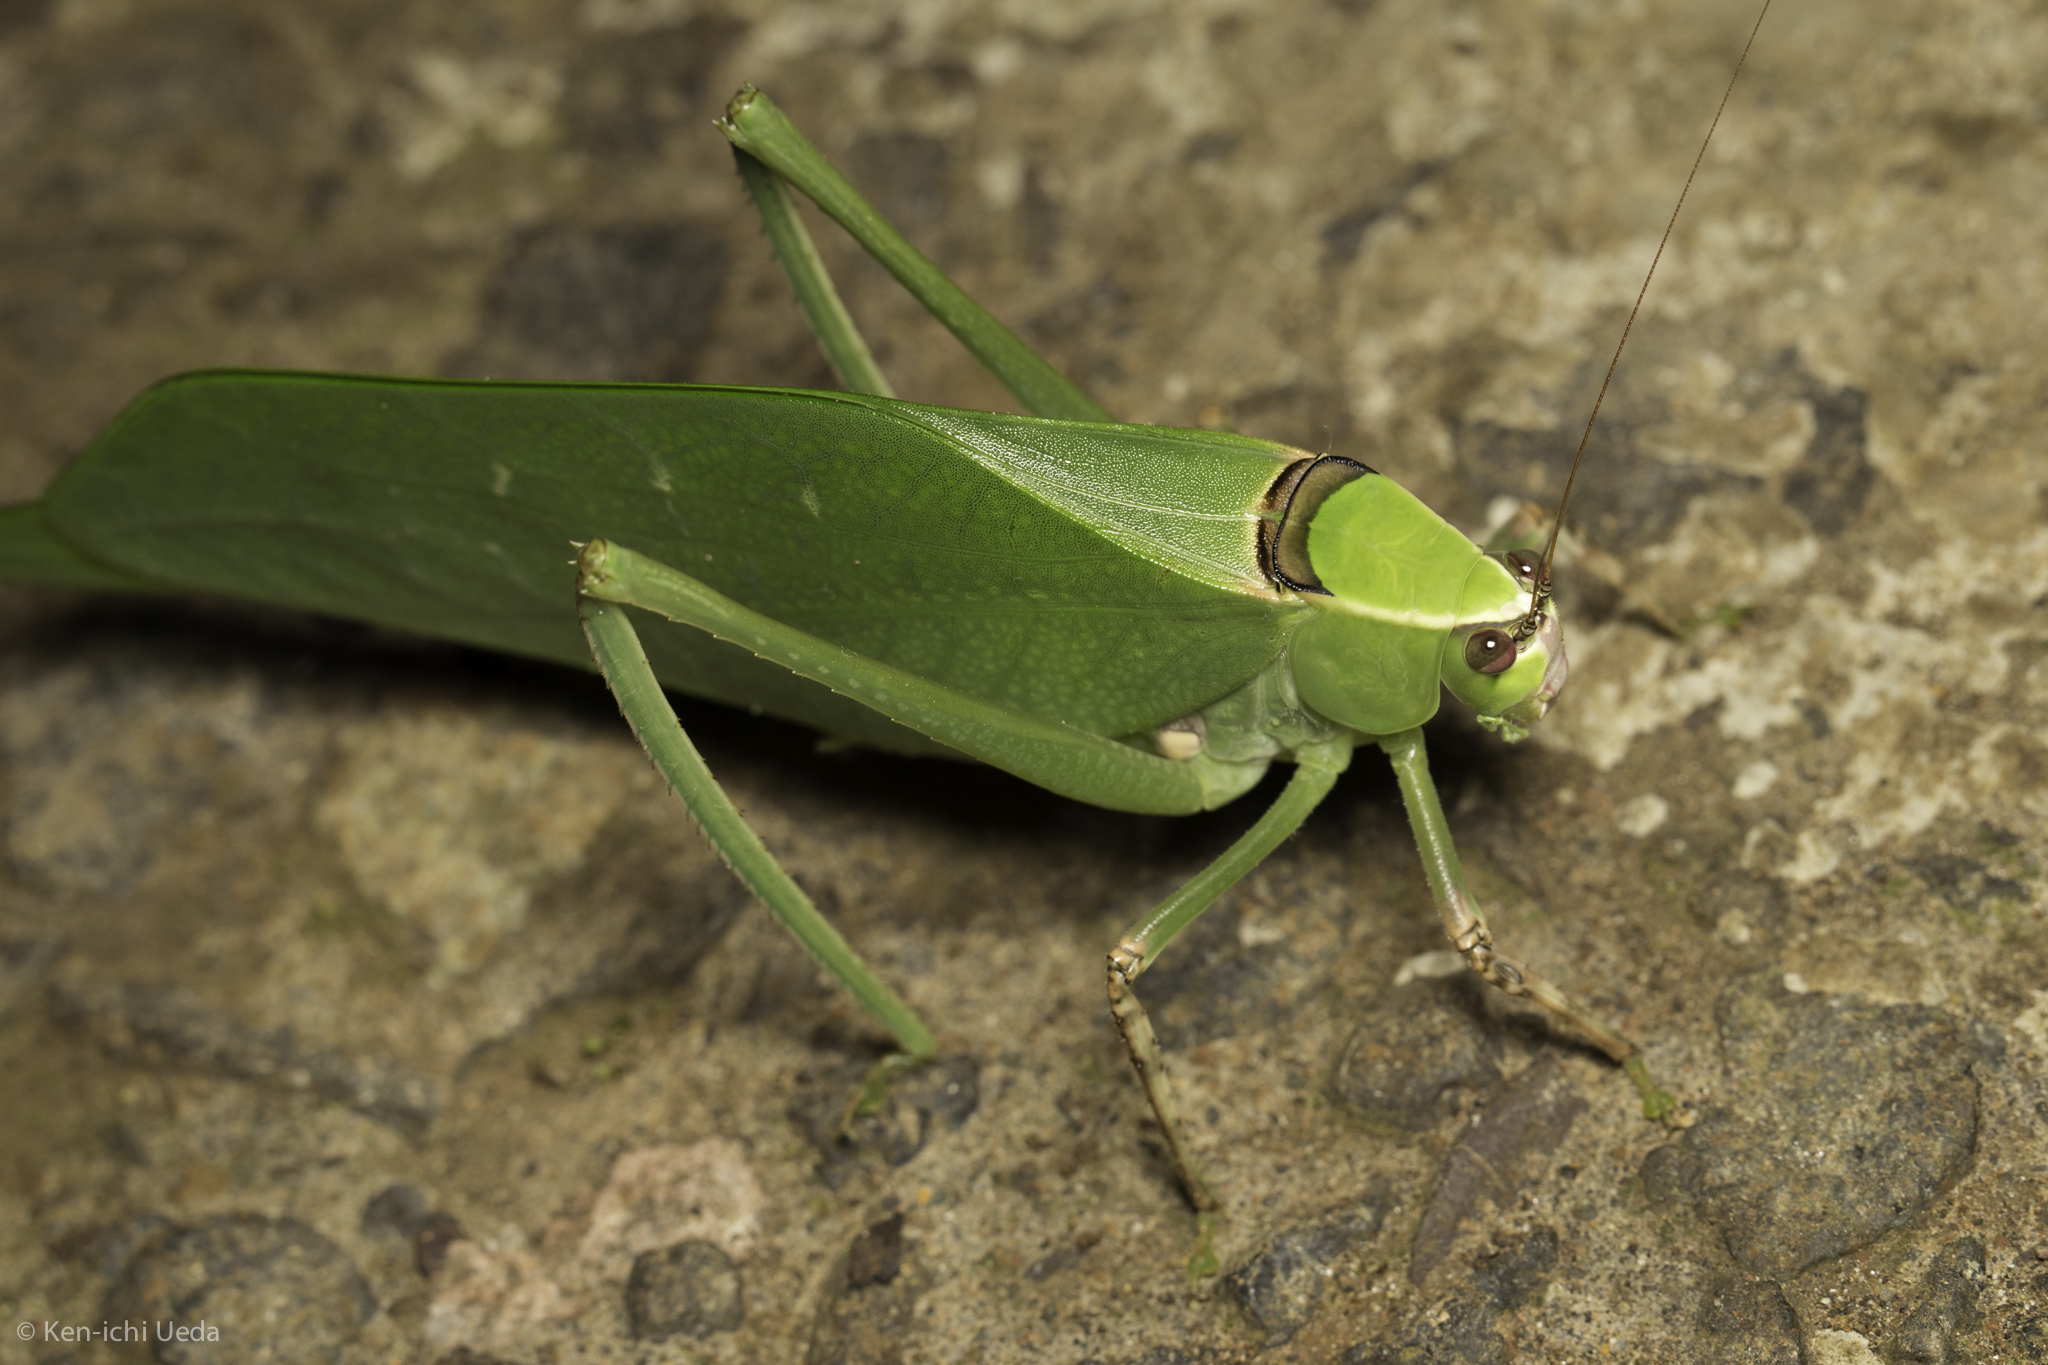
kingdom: Animalia
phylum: Arthropoda
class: Insecta
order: Orthoptera
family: Tettigoniidae
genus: Stilpnochlora
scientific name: Stilpnochlora thoracica
